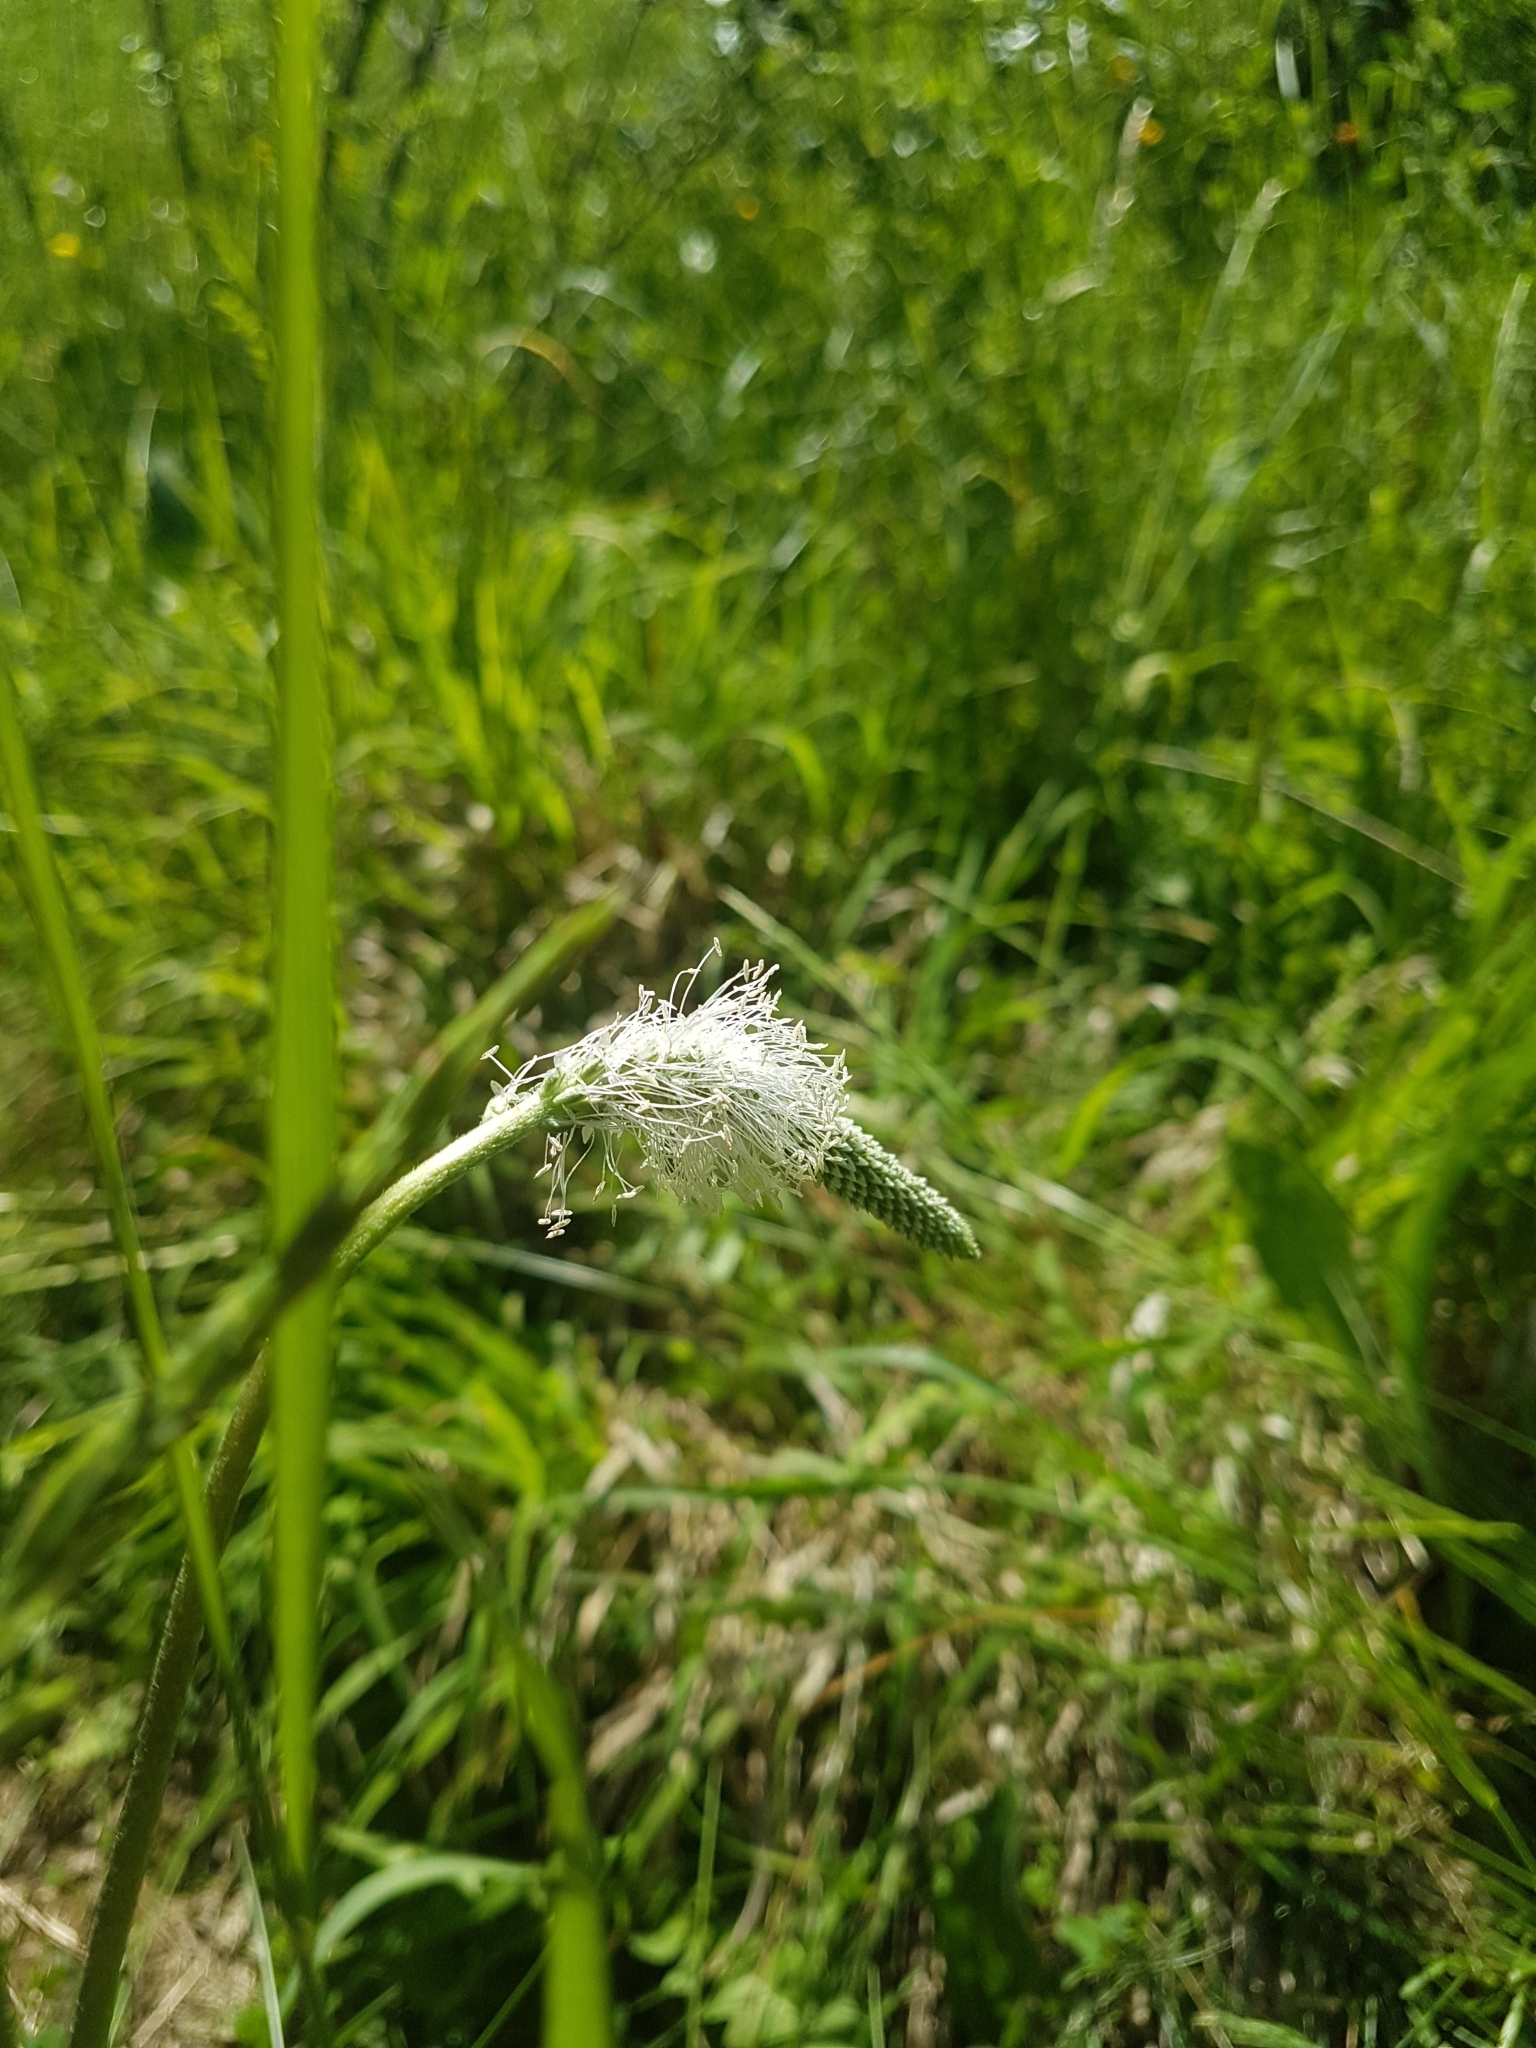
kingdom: Plantae
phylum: Tracheophyta
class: Magnoliopsida
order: Lamiales
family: Plantaginaceae
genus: Plantago
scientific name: Plantago media
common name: Hoary plantain
